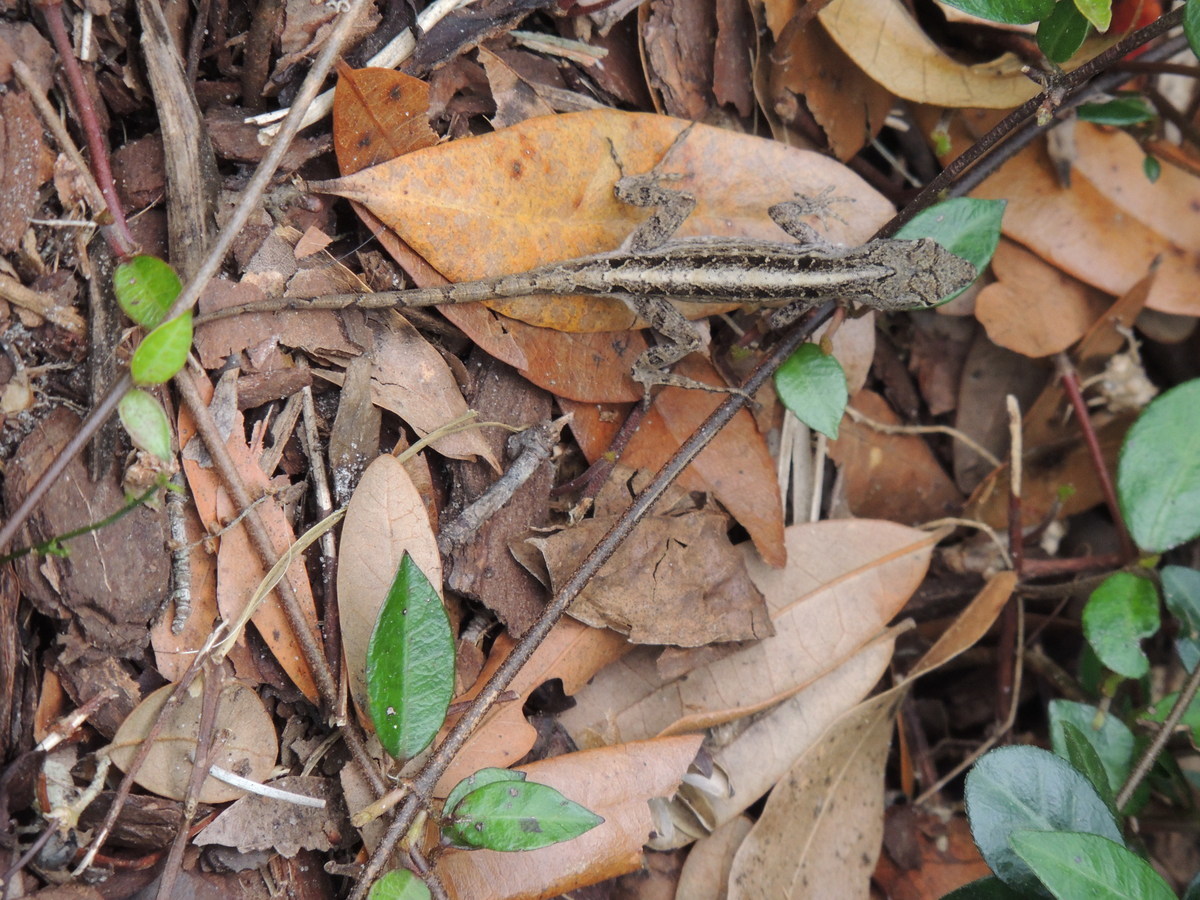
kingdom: Animalia
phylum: Chordata
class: Squamata
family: Dactyloidae
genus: Anolis
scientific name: Anolis sagrei
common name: Brown anole
